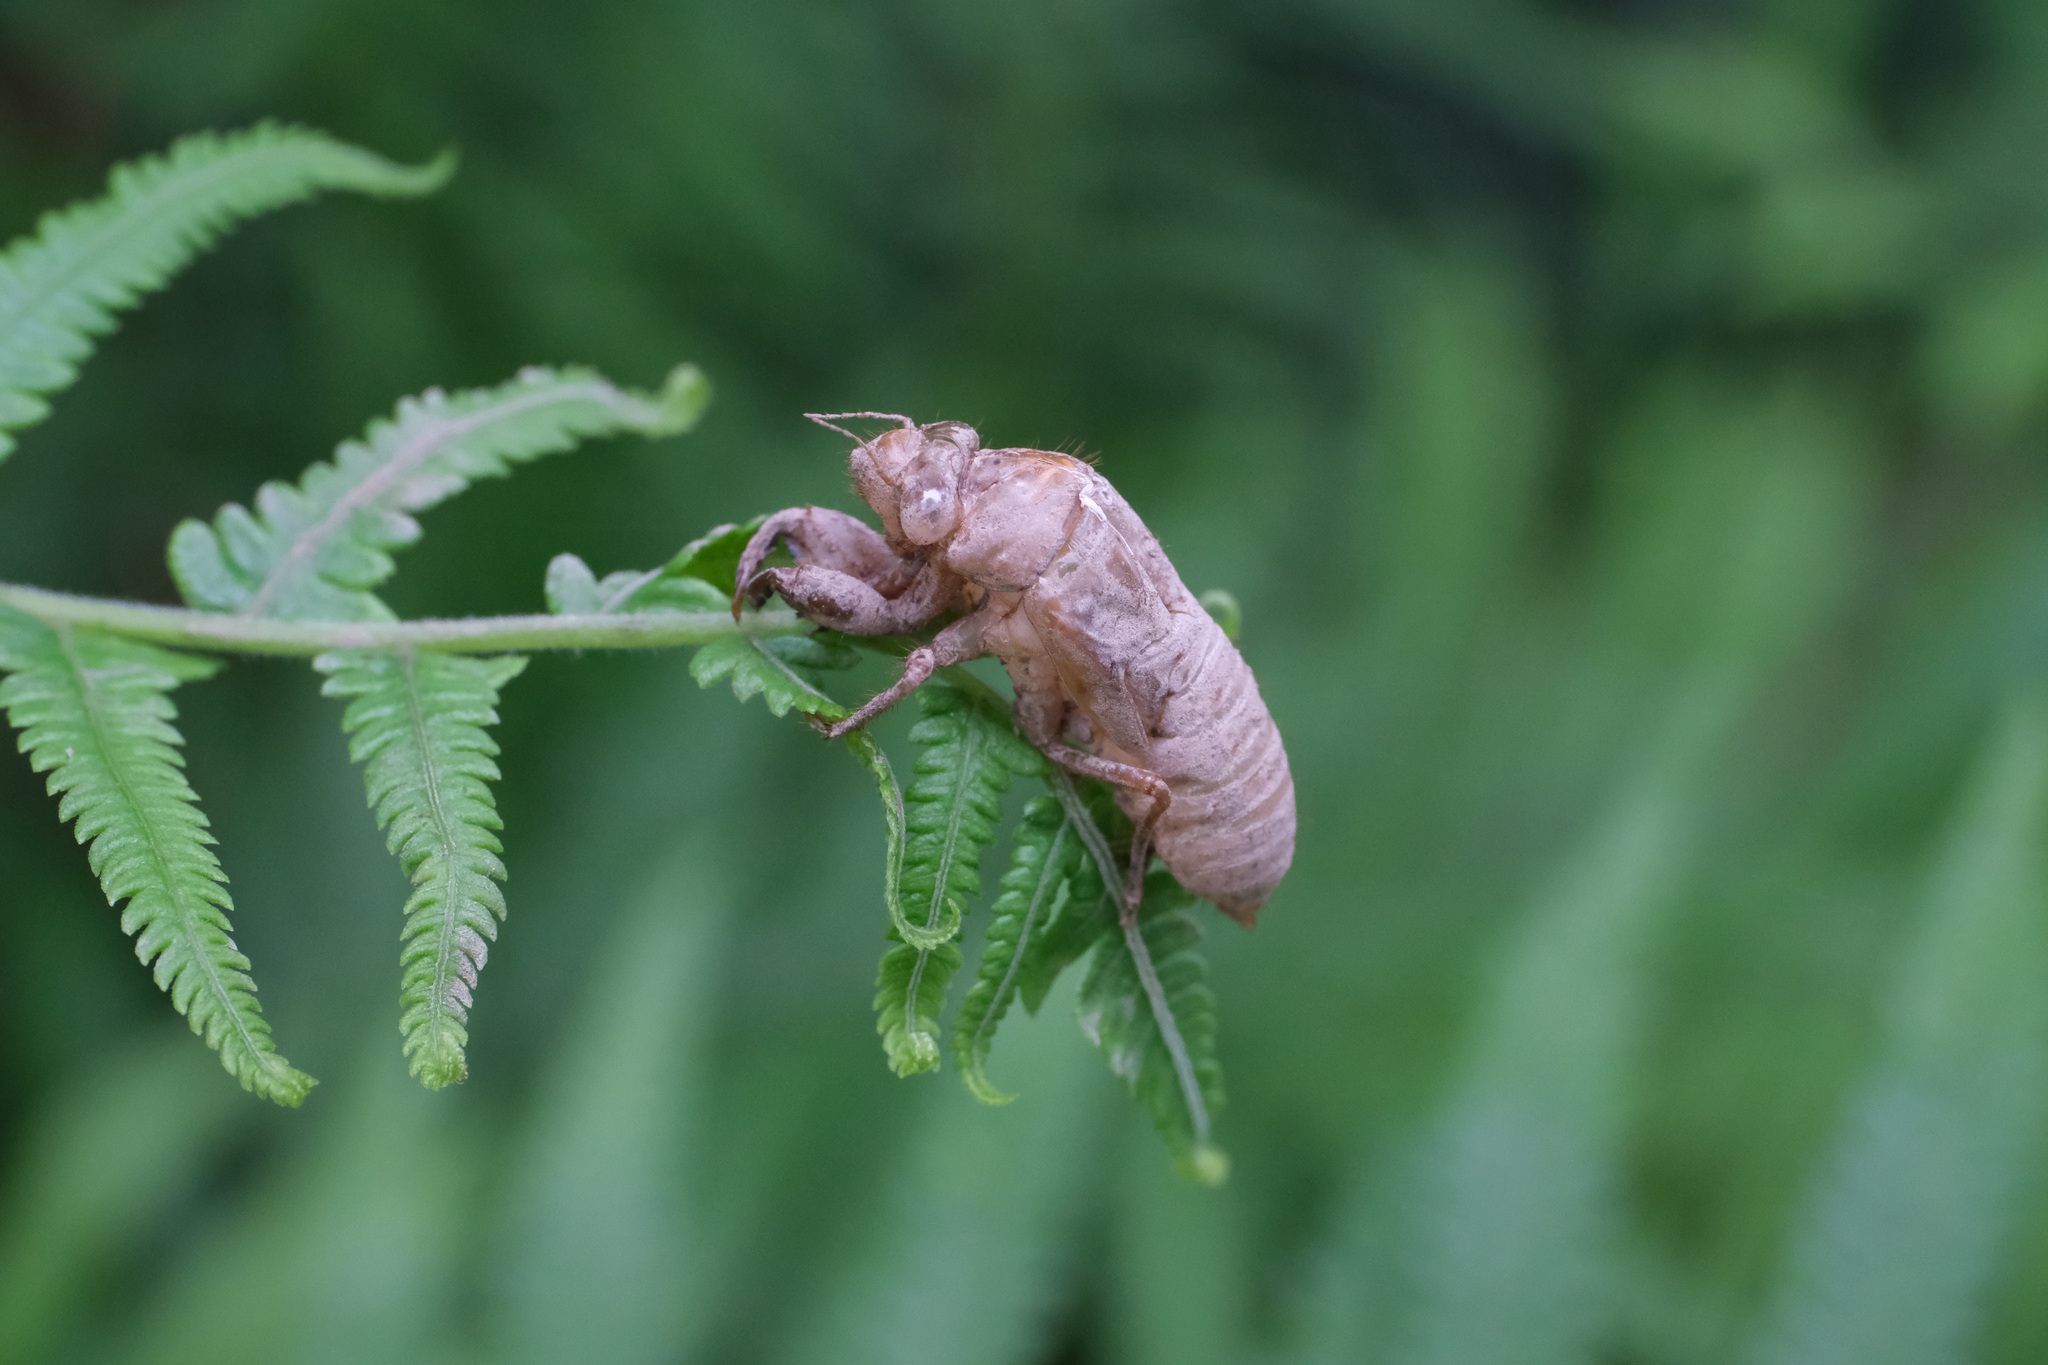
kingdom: Animalia
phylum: Arthropoda
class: Insecta
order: Hemiptera
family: Cicadidae
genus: Meimuna
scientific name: Meimuna mongolica
